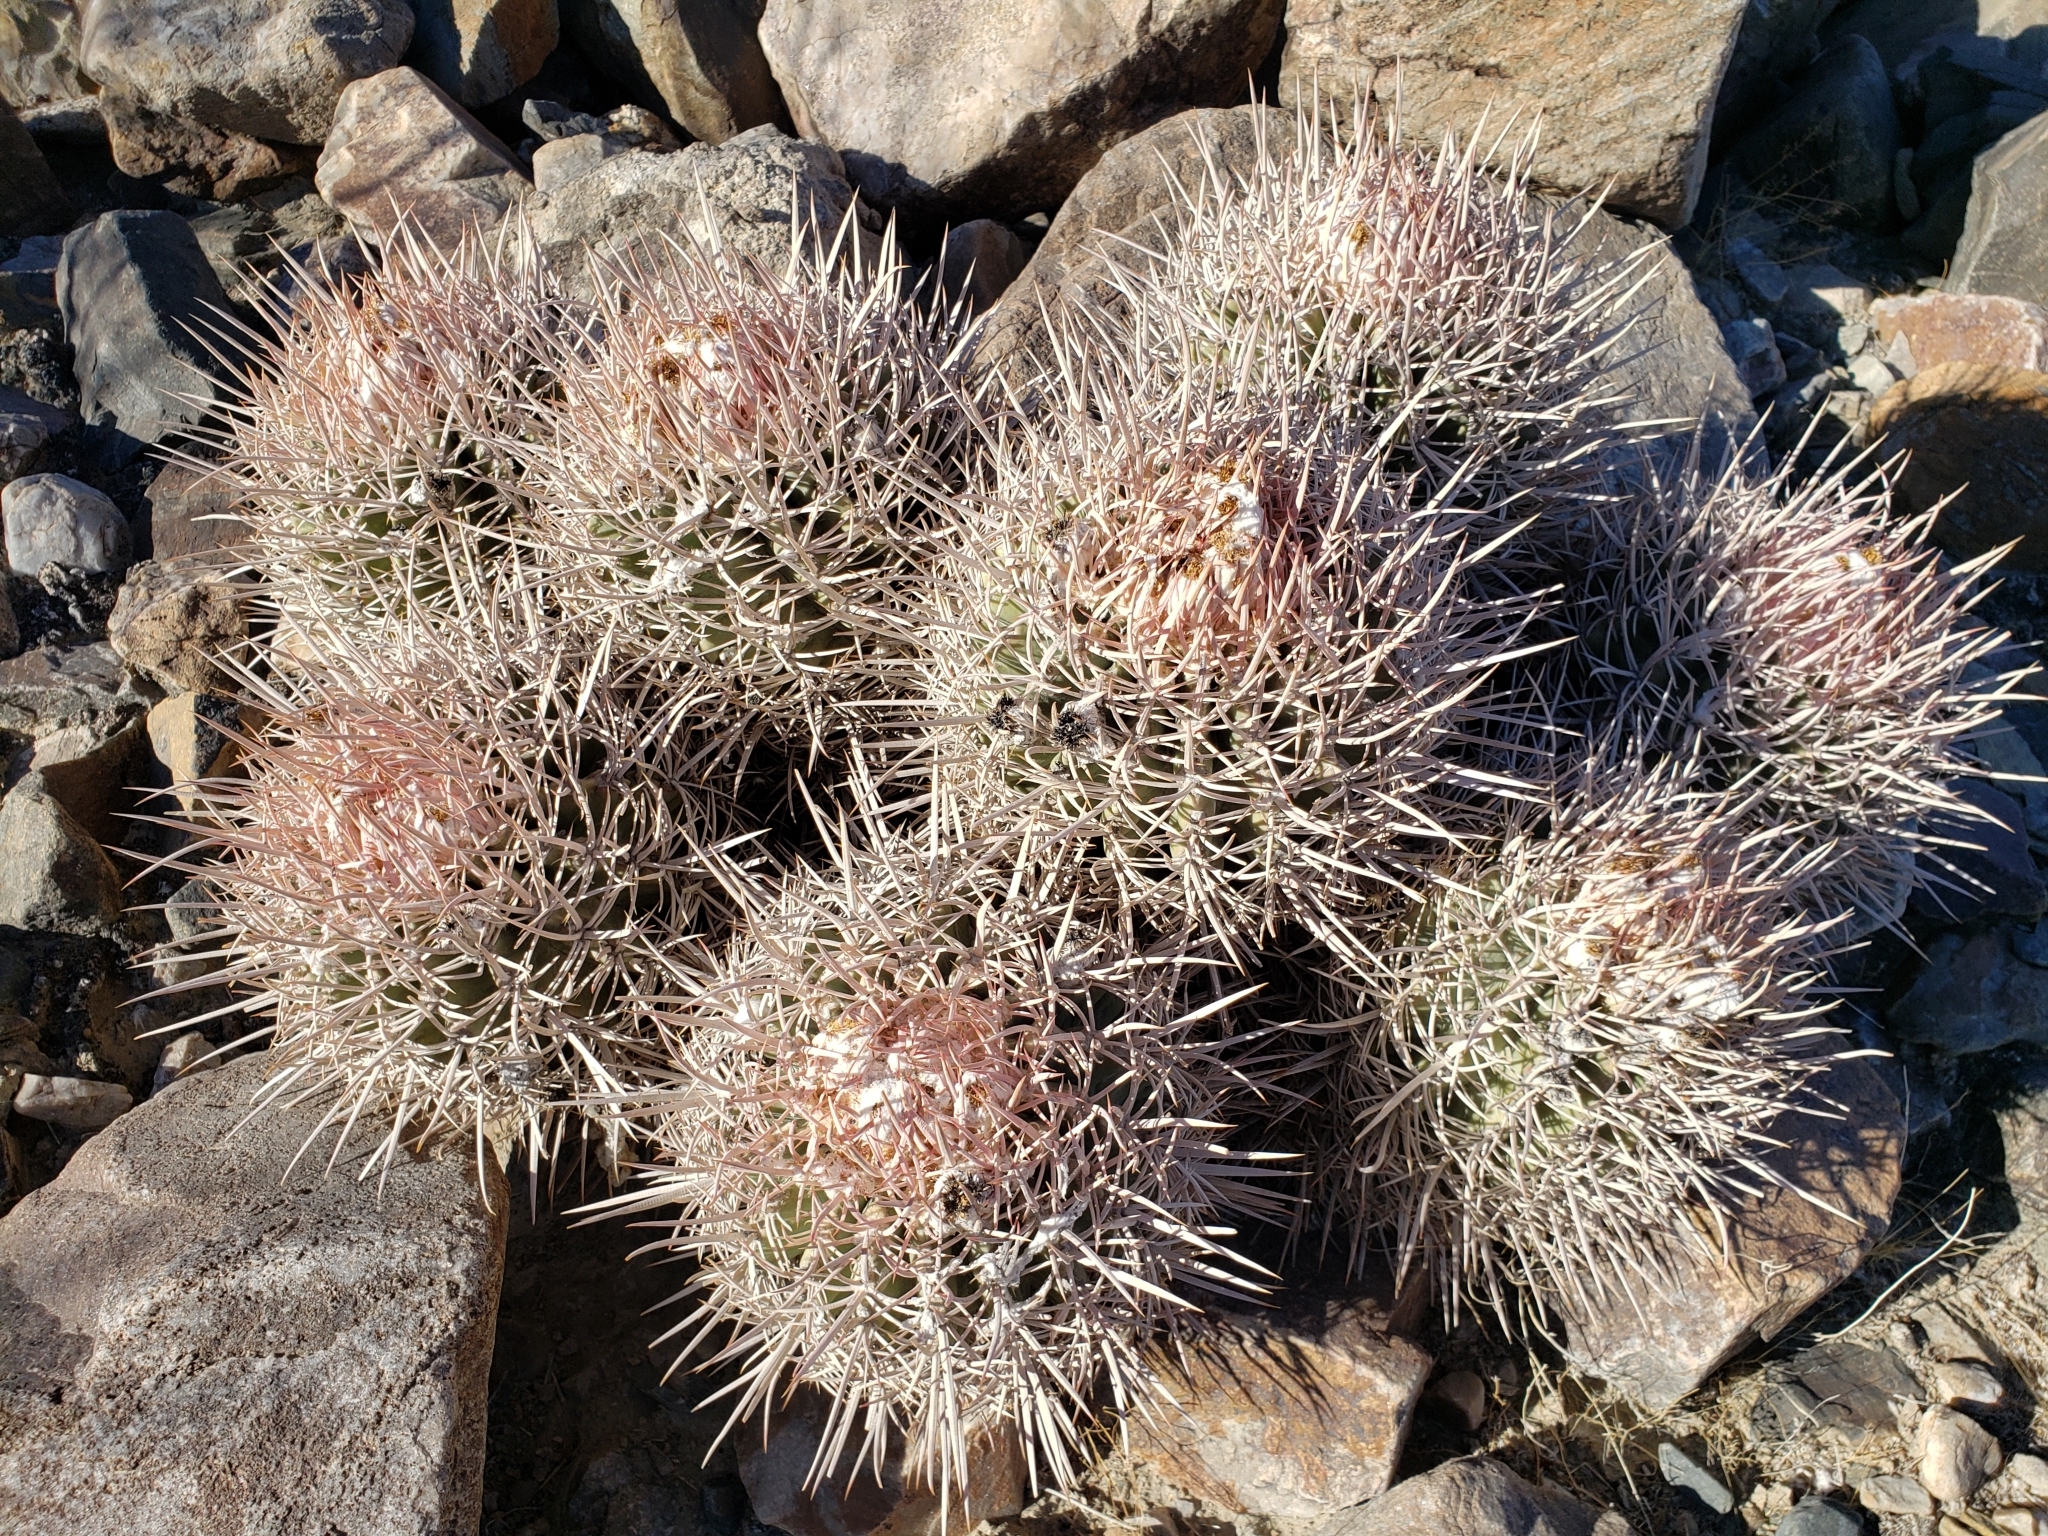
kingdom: Plantae
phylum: Tracheophyta
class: Magnoliopsida
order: Caryophyllales
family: Cactaceae
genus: Echinocactus
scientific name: Echinocactus polycephalus
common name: Cottontop cactus
